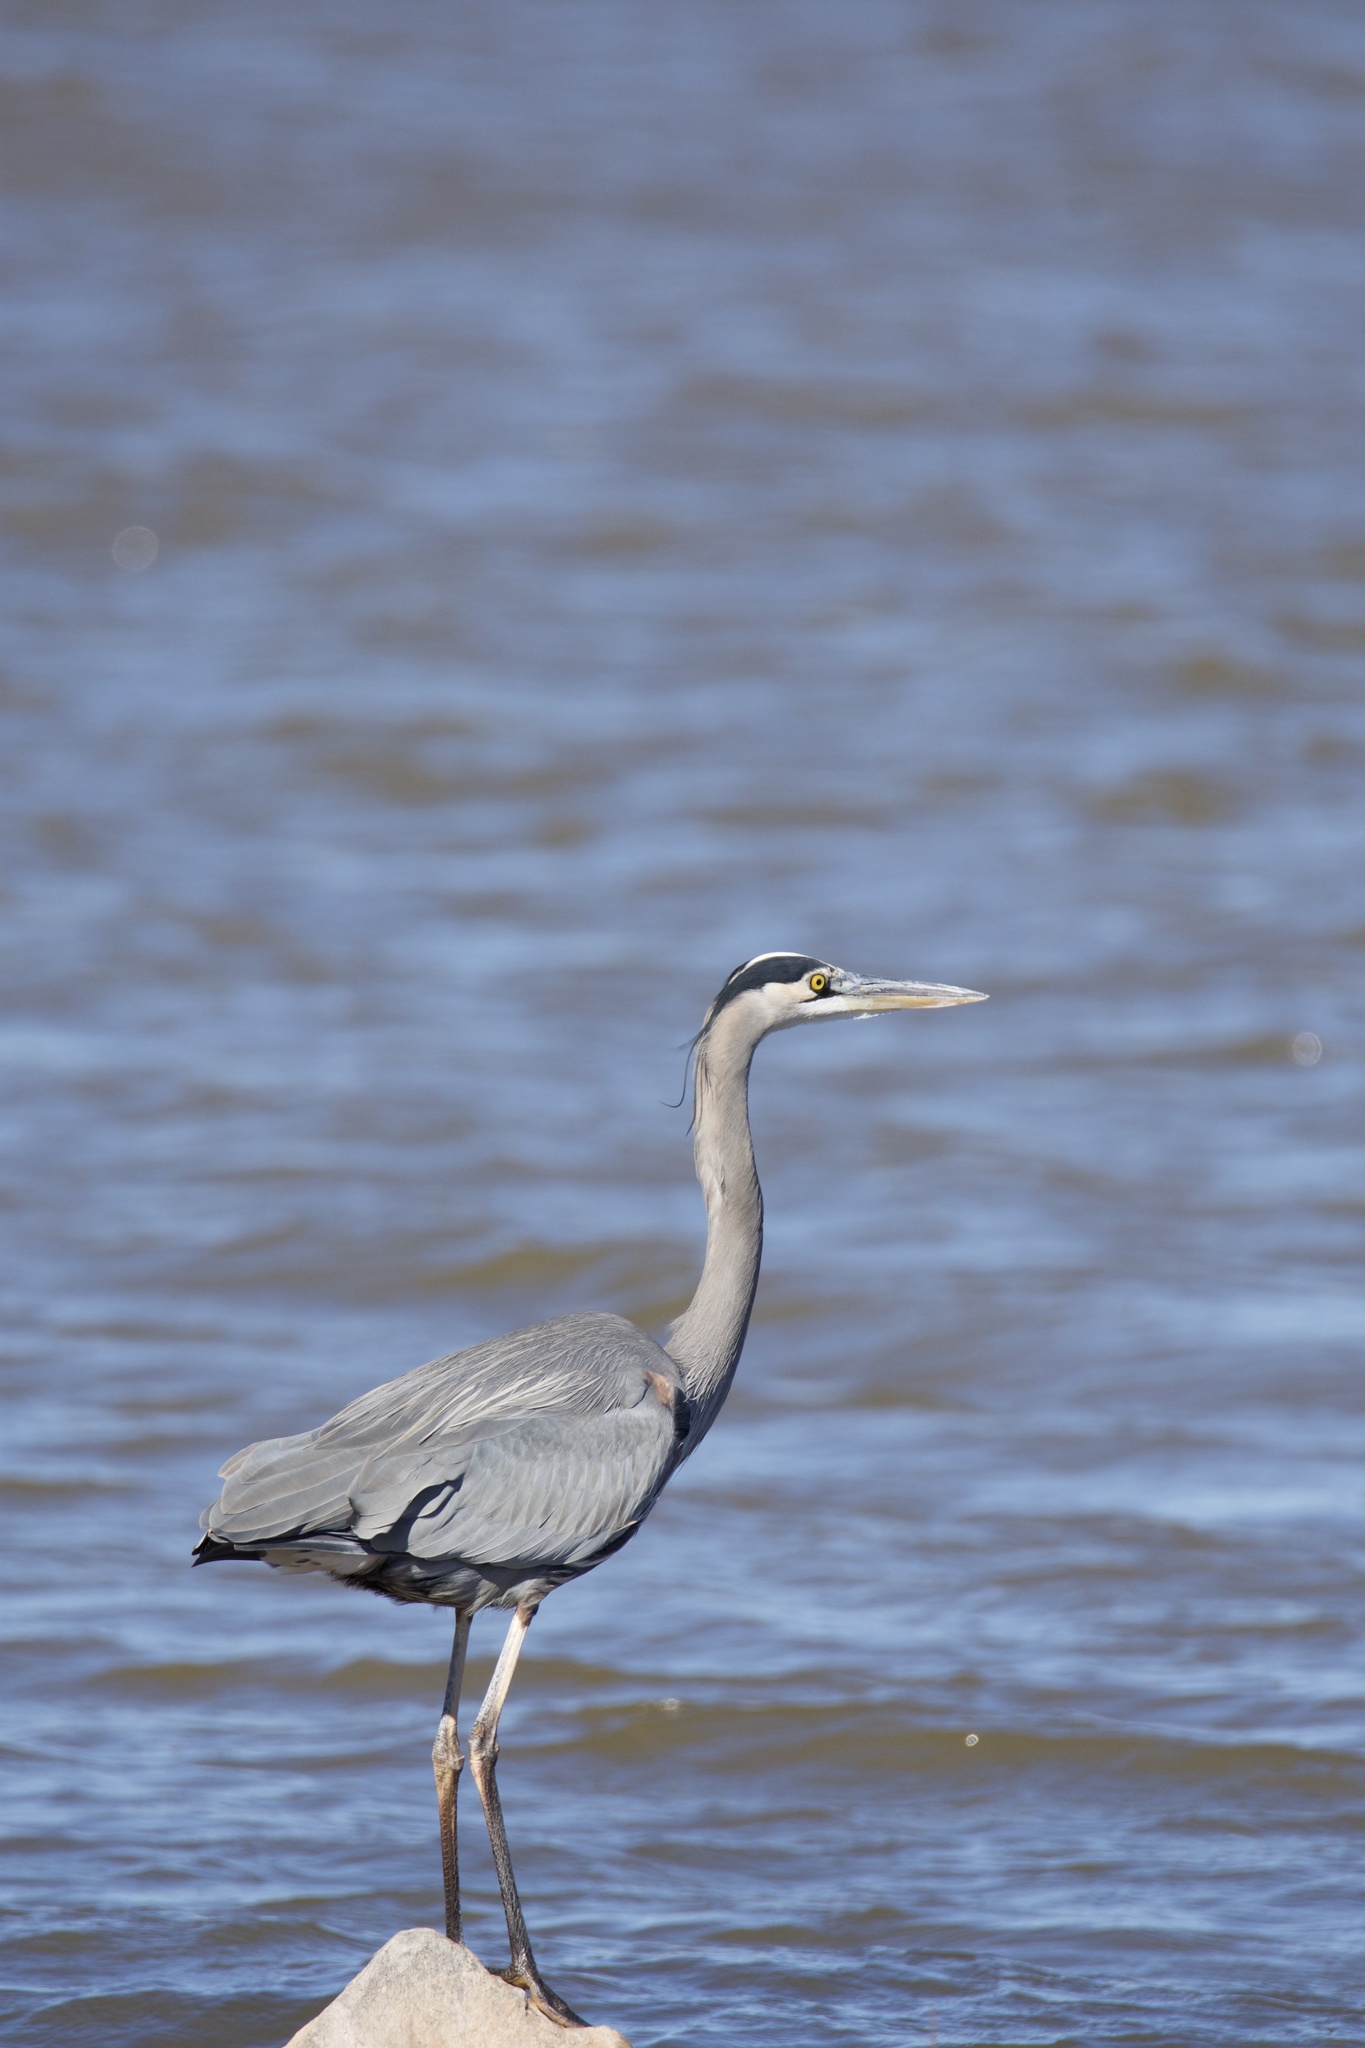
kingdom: Animalia
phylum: Chordata
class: Aves
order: Pelecaniformes
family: Ardeidae
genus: Ardea
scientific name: Ardea herodias
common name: Great blue heron
